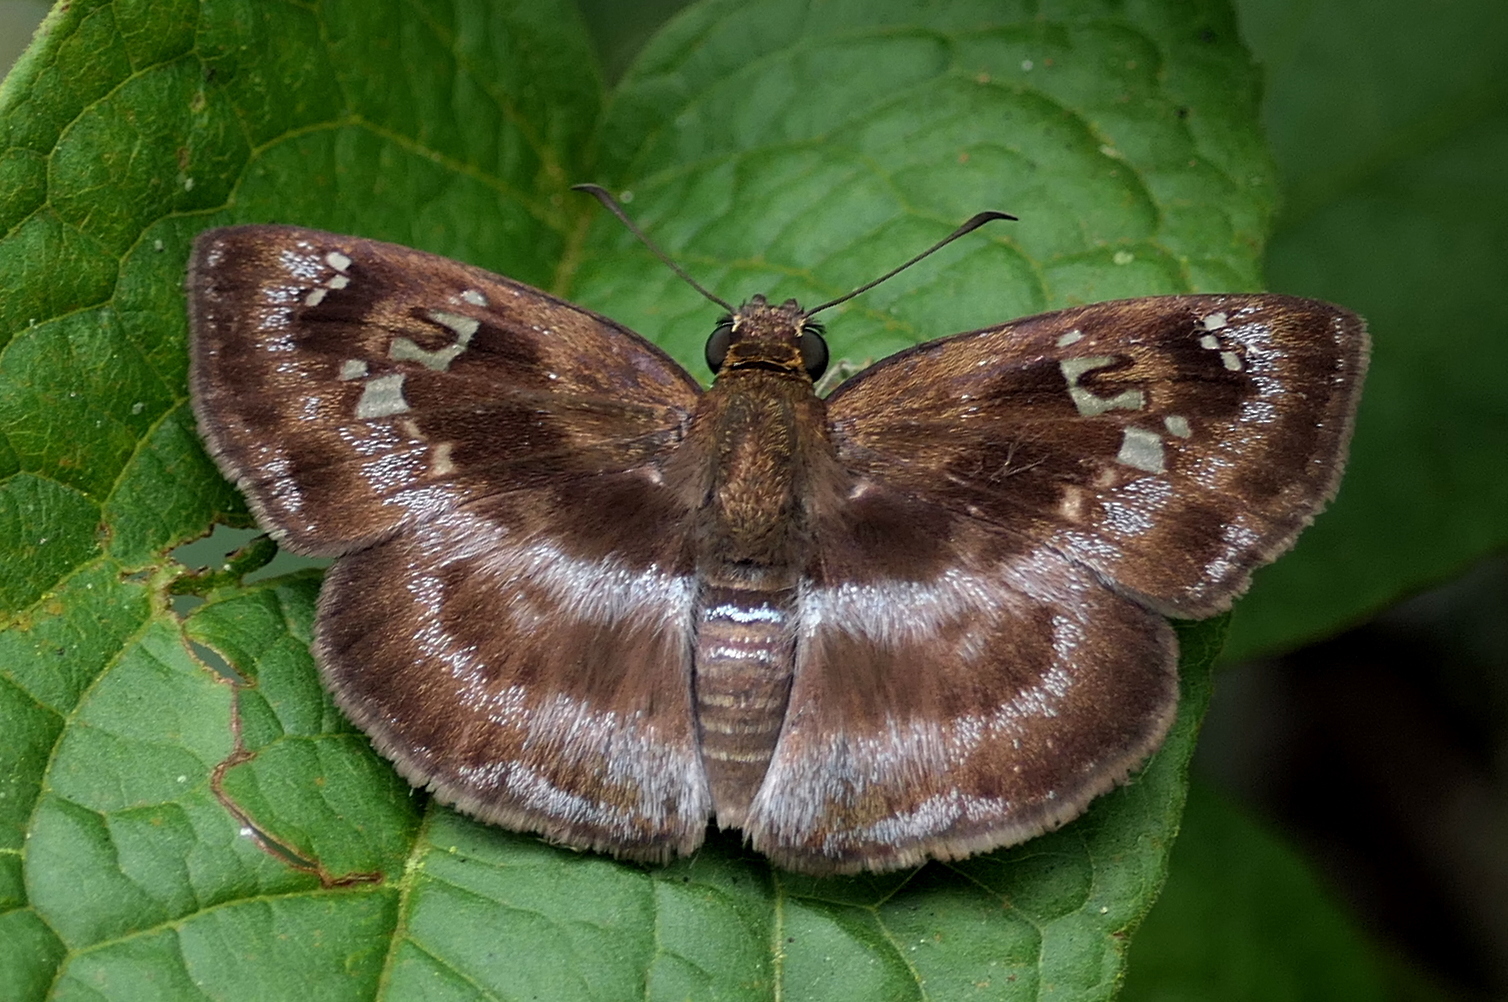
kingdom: Animalia
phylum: Arthropoda
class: Insecta
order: Lepidoptera
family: Hesperiidae
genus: Quadrus
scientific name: Quadrus cerialis
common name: Common blue-skipper
